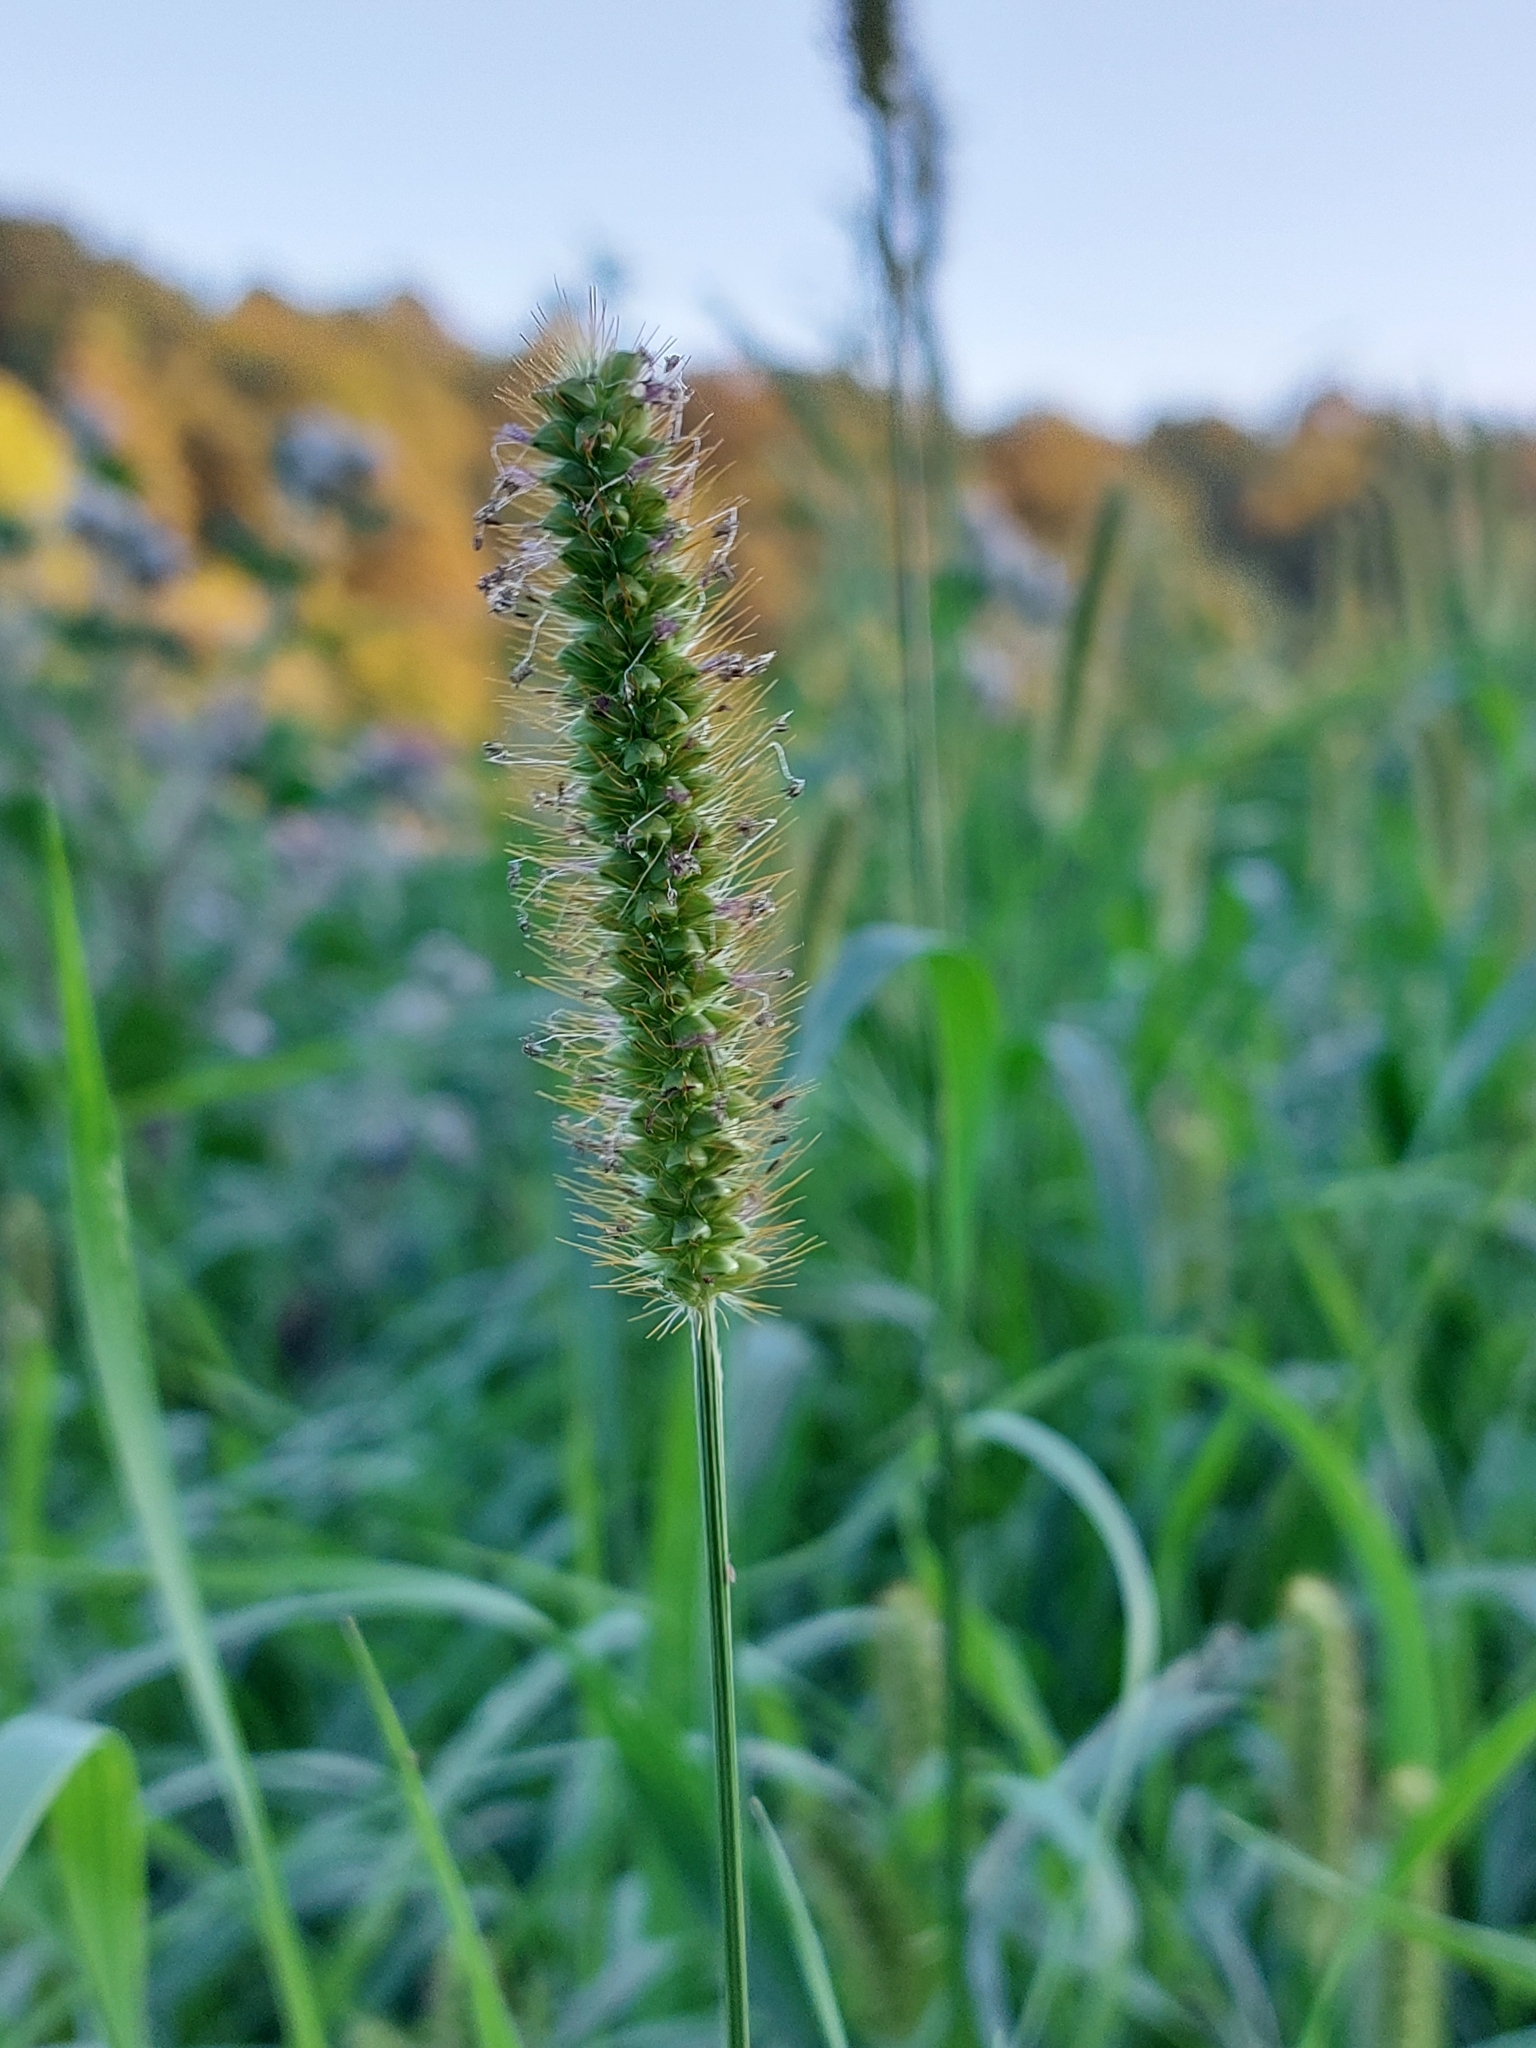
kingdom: Plantae
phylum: Tracheophyta
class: Liliopsida
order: Poales
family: Poaceae
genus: Setaria
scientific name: Setaria pumila
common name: Yellow bristle-grass
